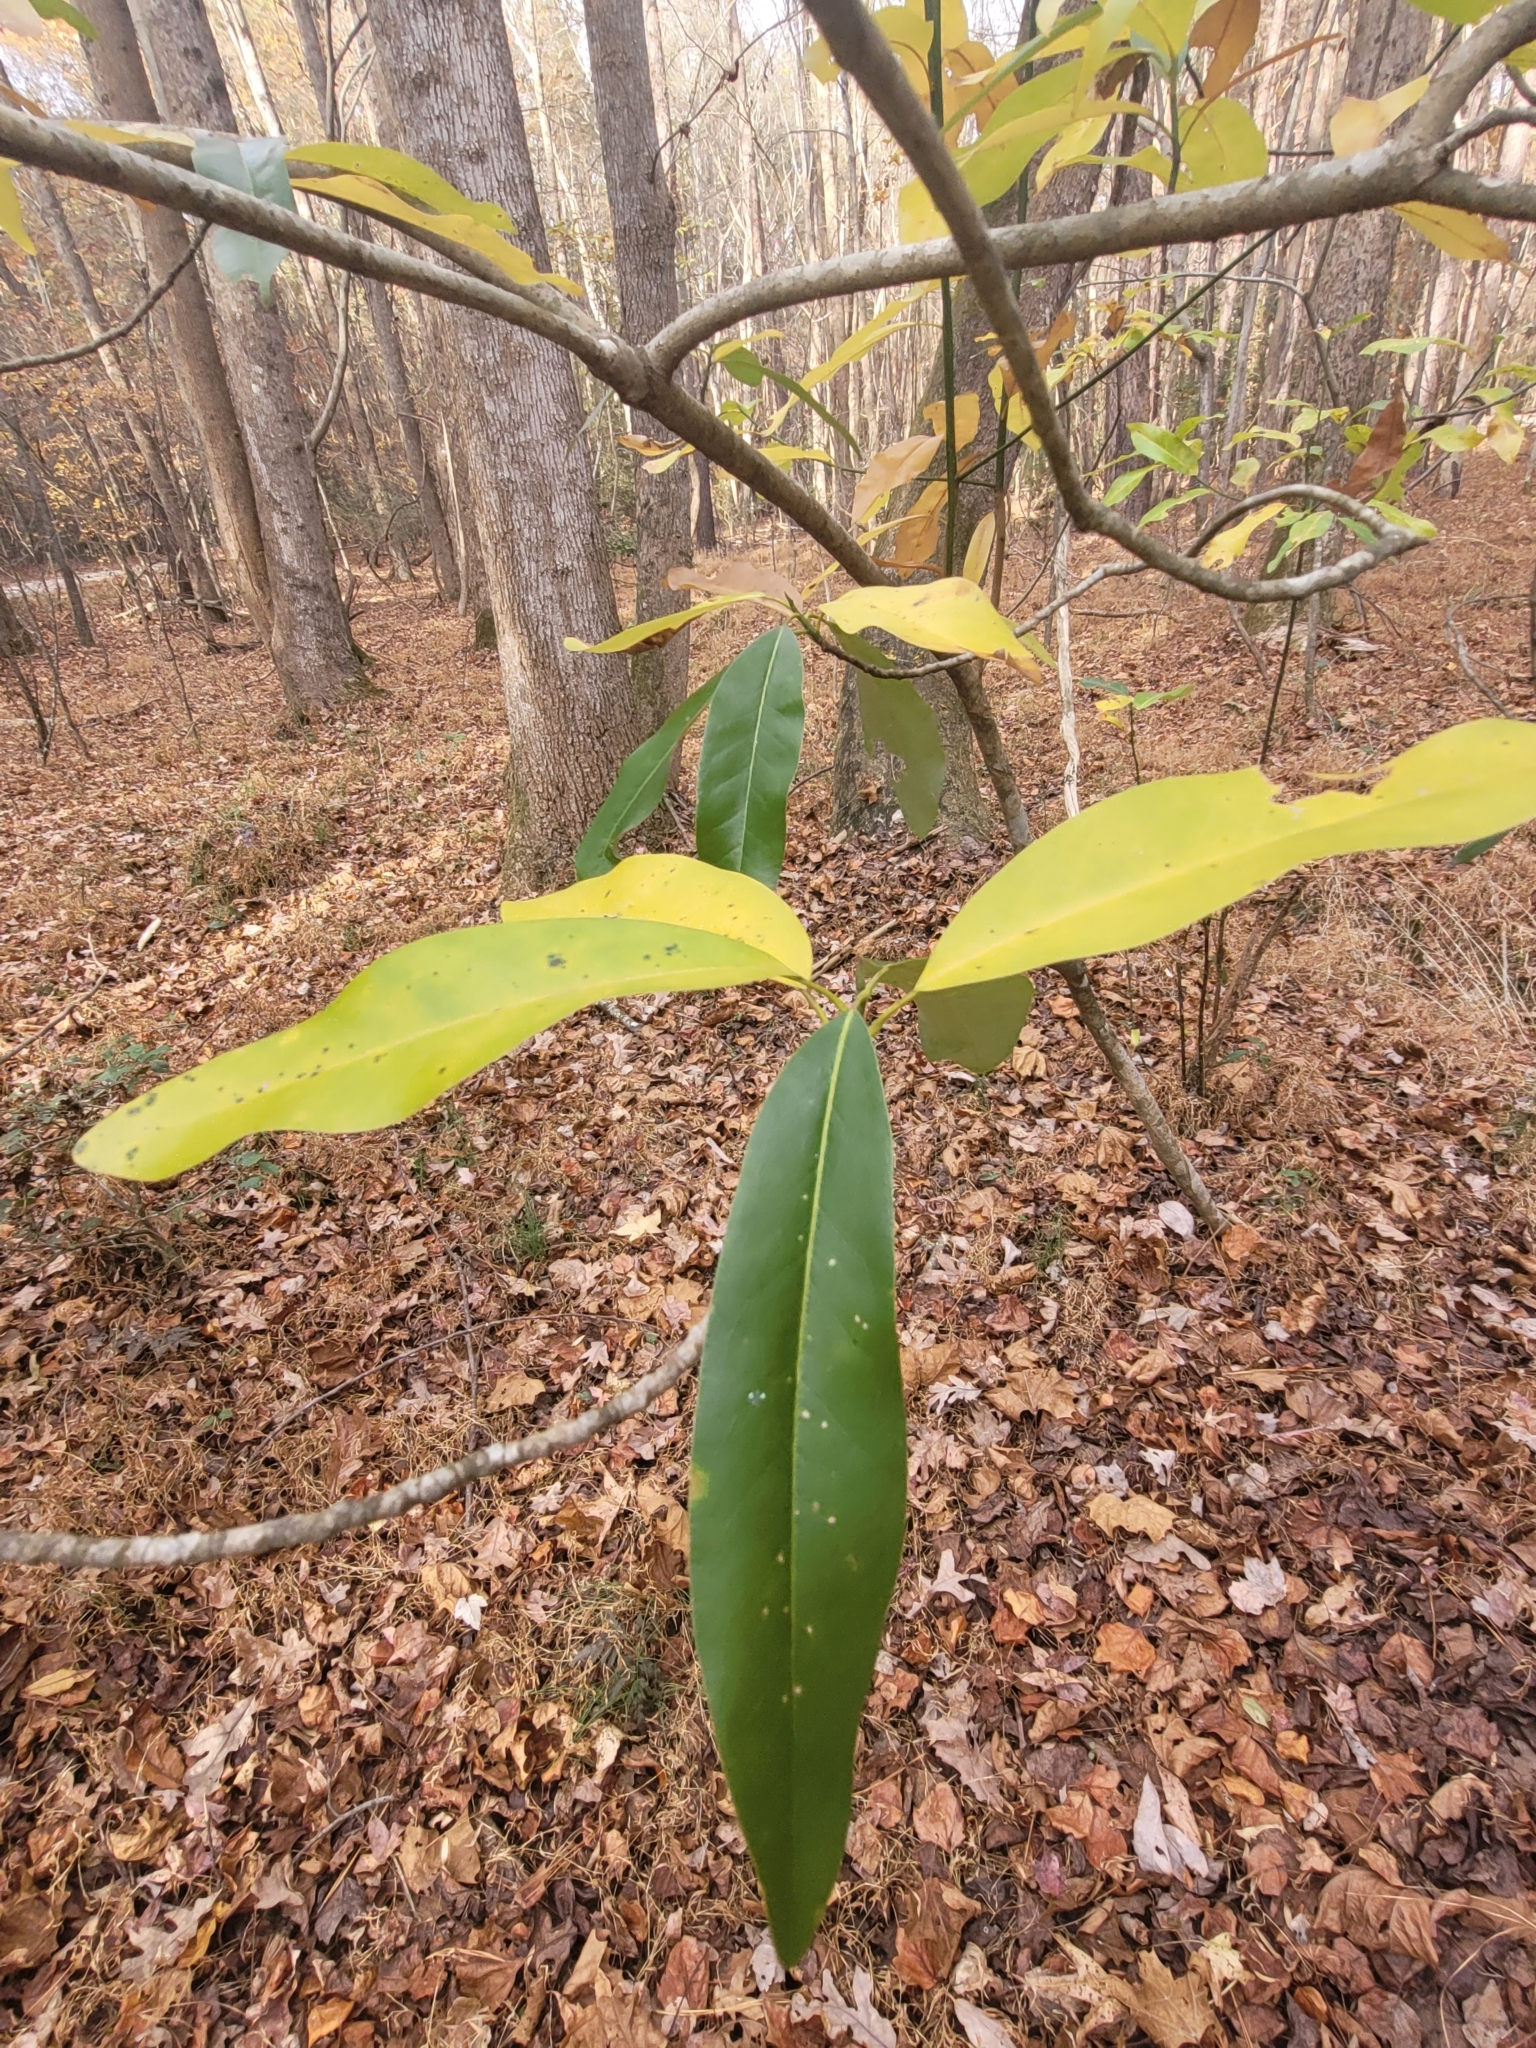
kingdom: Plantae
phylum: Tracheophyta
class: Magnoliopsida
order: Magnoliales
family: Magnoliaceae
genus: Magnolia
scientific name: Magnolia virginiana
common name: Swamp bay
